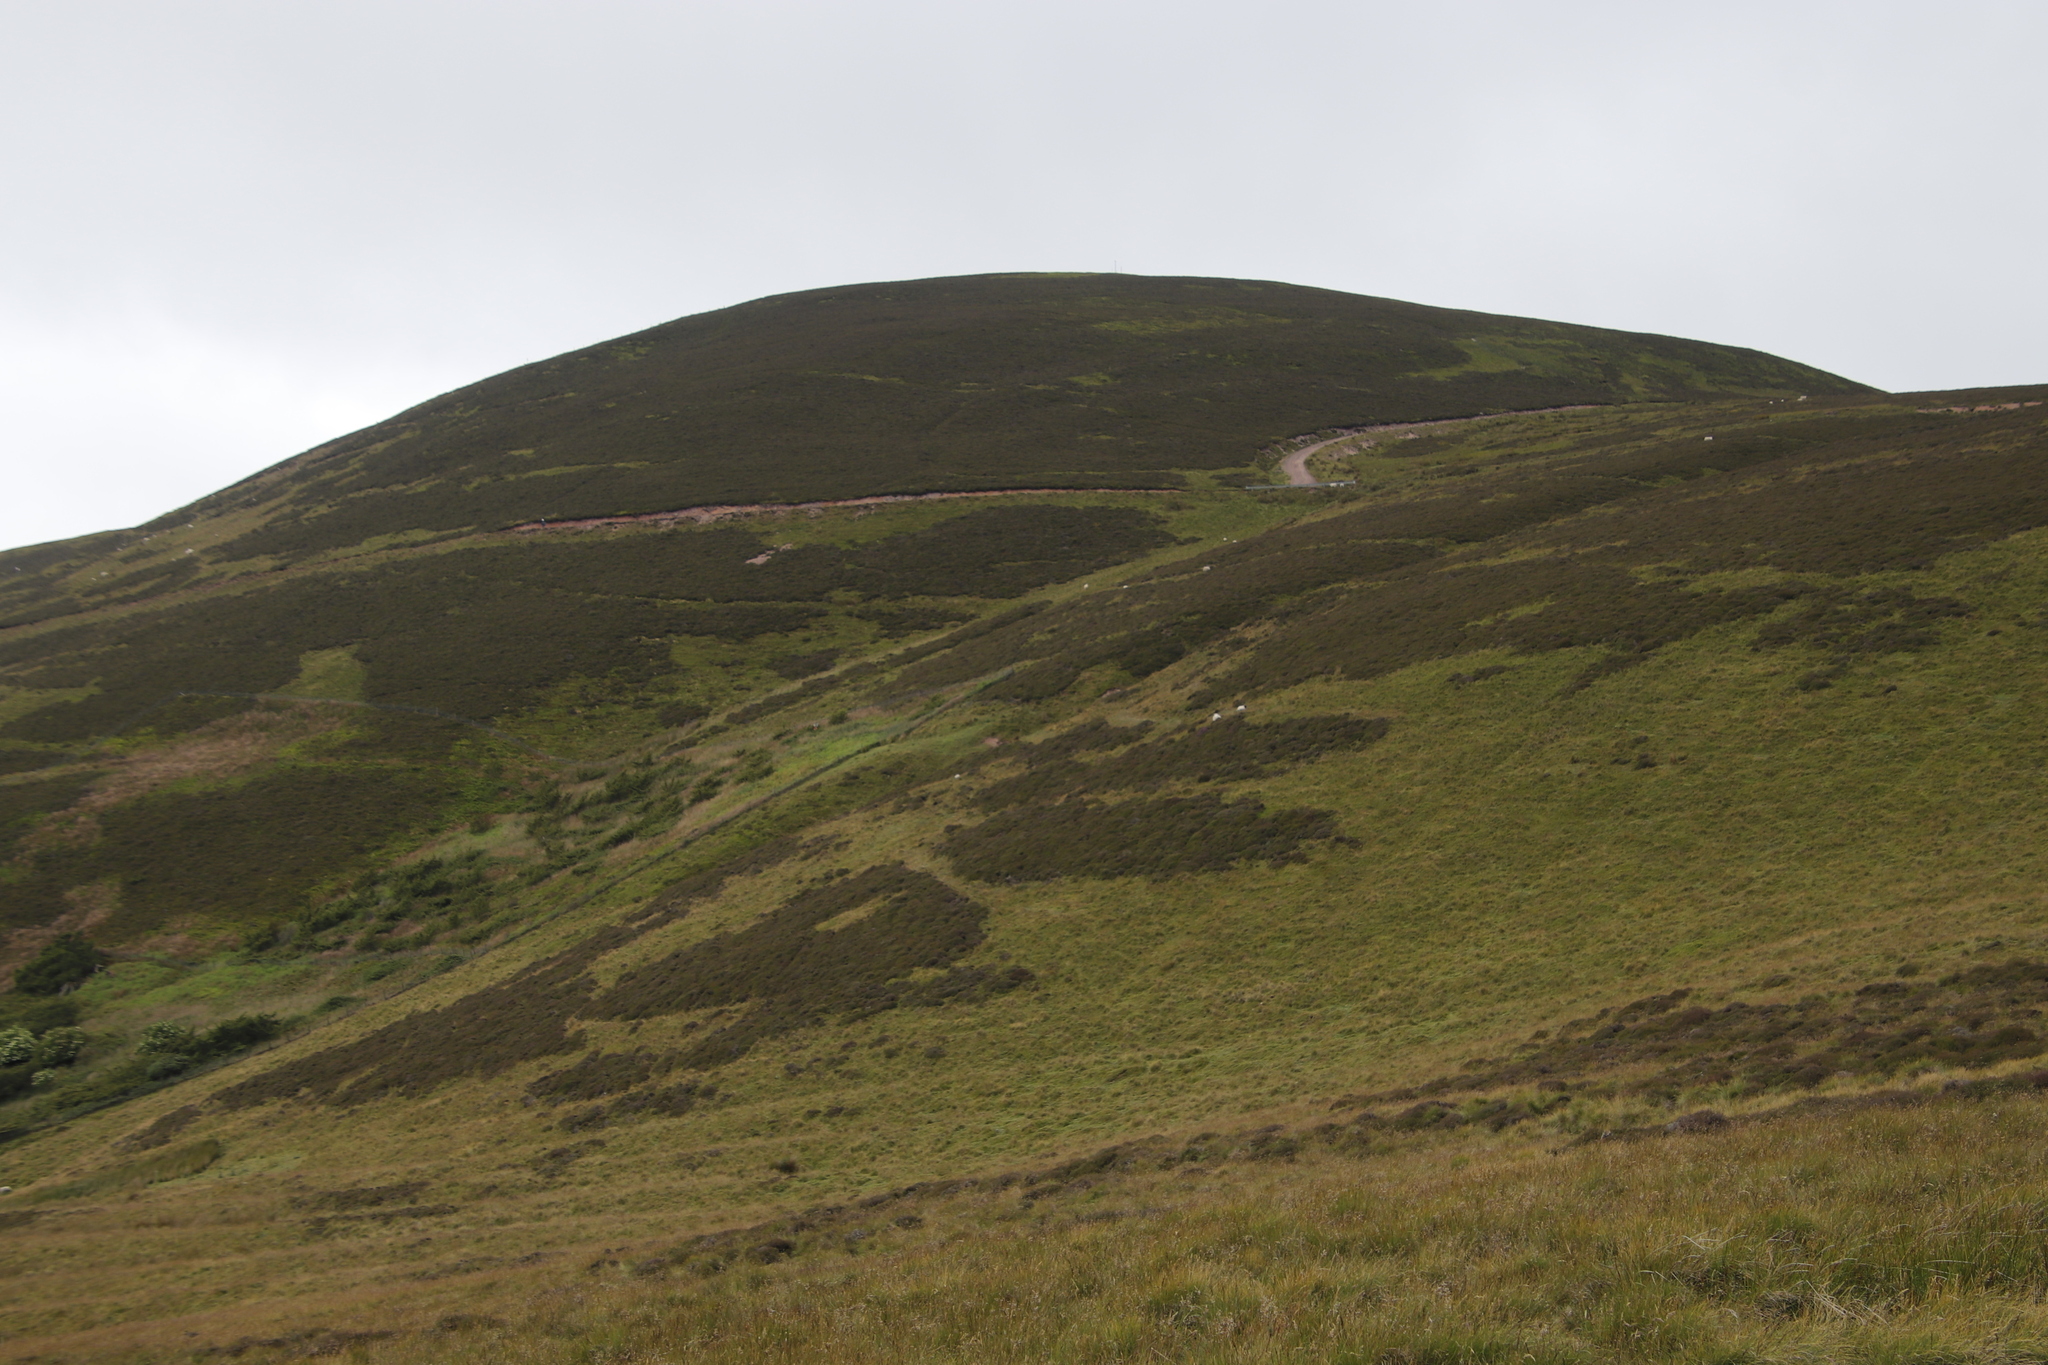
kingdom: Plantae
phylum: Tracheophyta
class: Magnoliopsida
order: Ericales
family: Ericaceae
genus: Calluna
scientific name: Calluna vulgaris
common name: Heather
